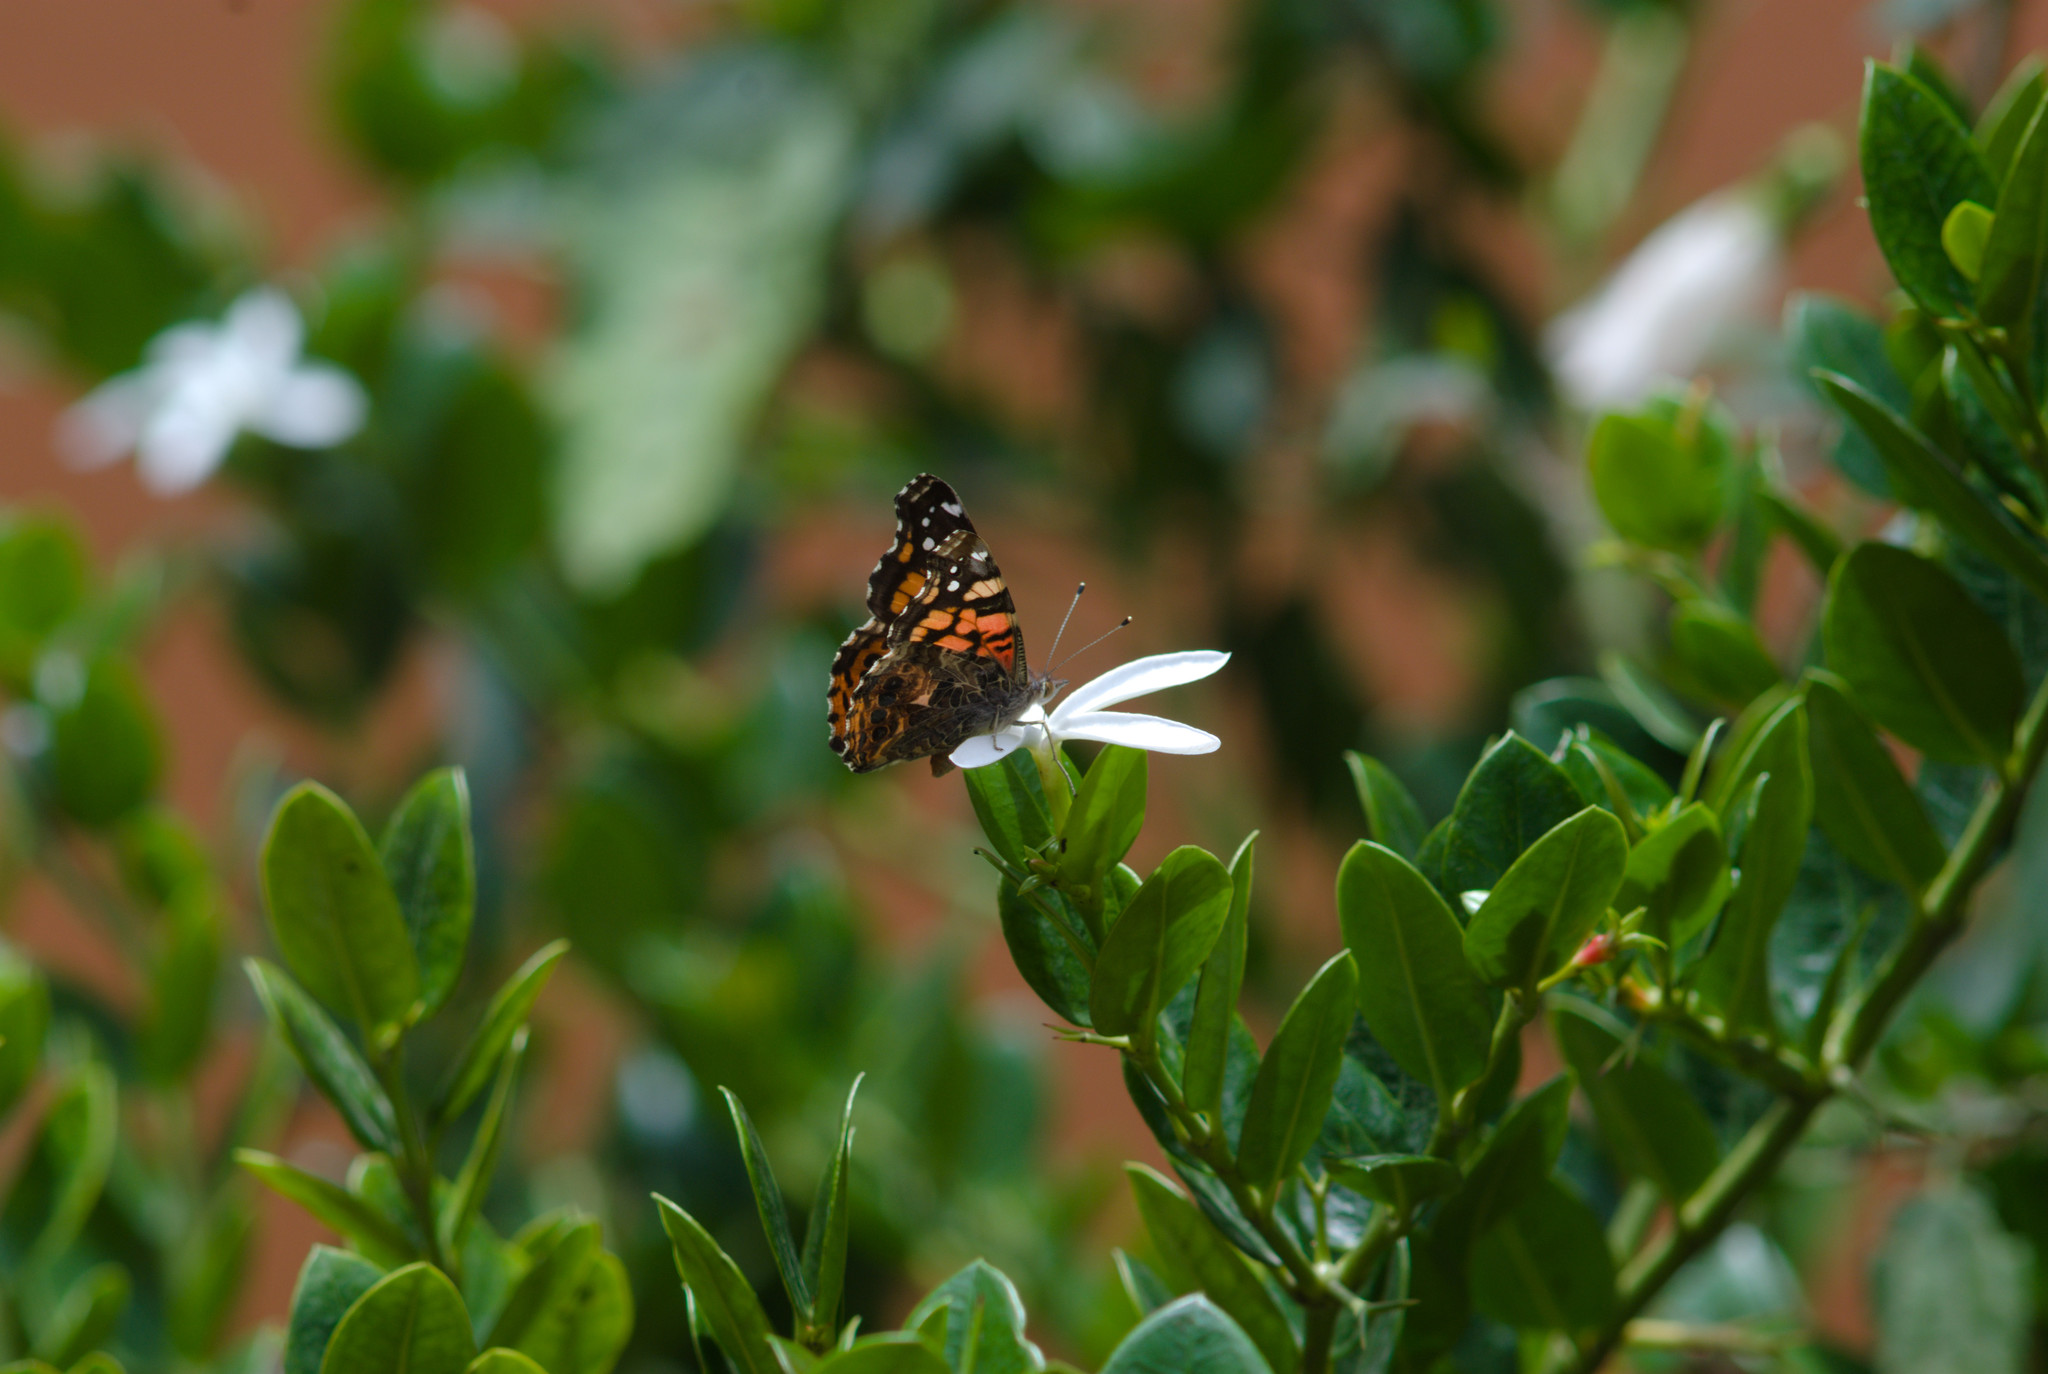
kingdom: Animalia
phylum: Arthropoda
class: Insecta
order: Lepidoptera
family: Nymphalidae
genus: Vanessa
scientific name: Vanessa annabella
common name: West coast lady
